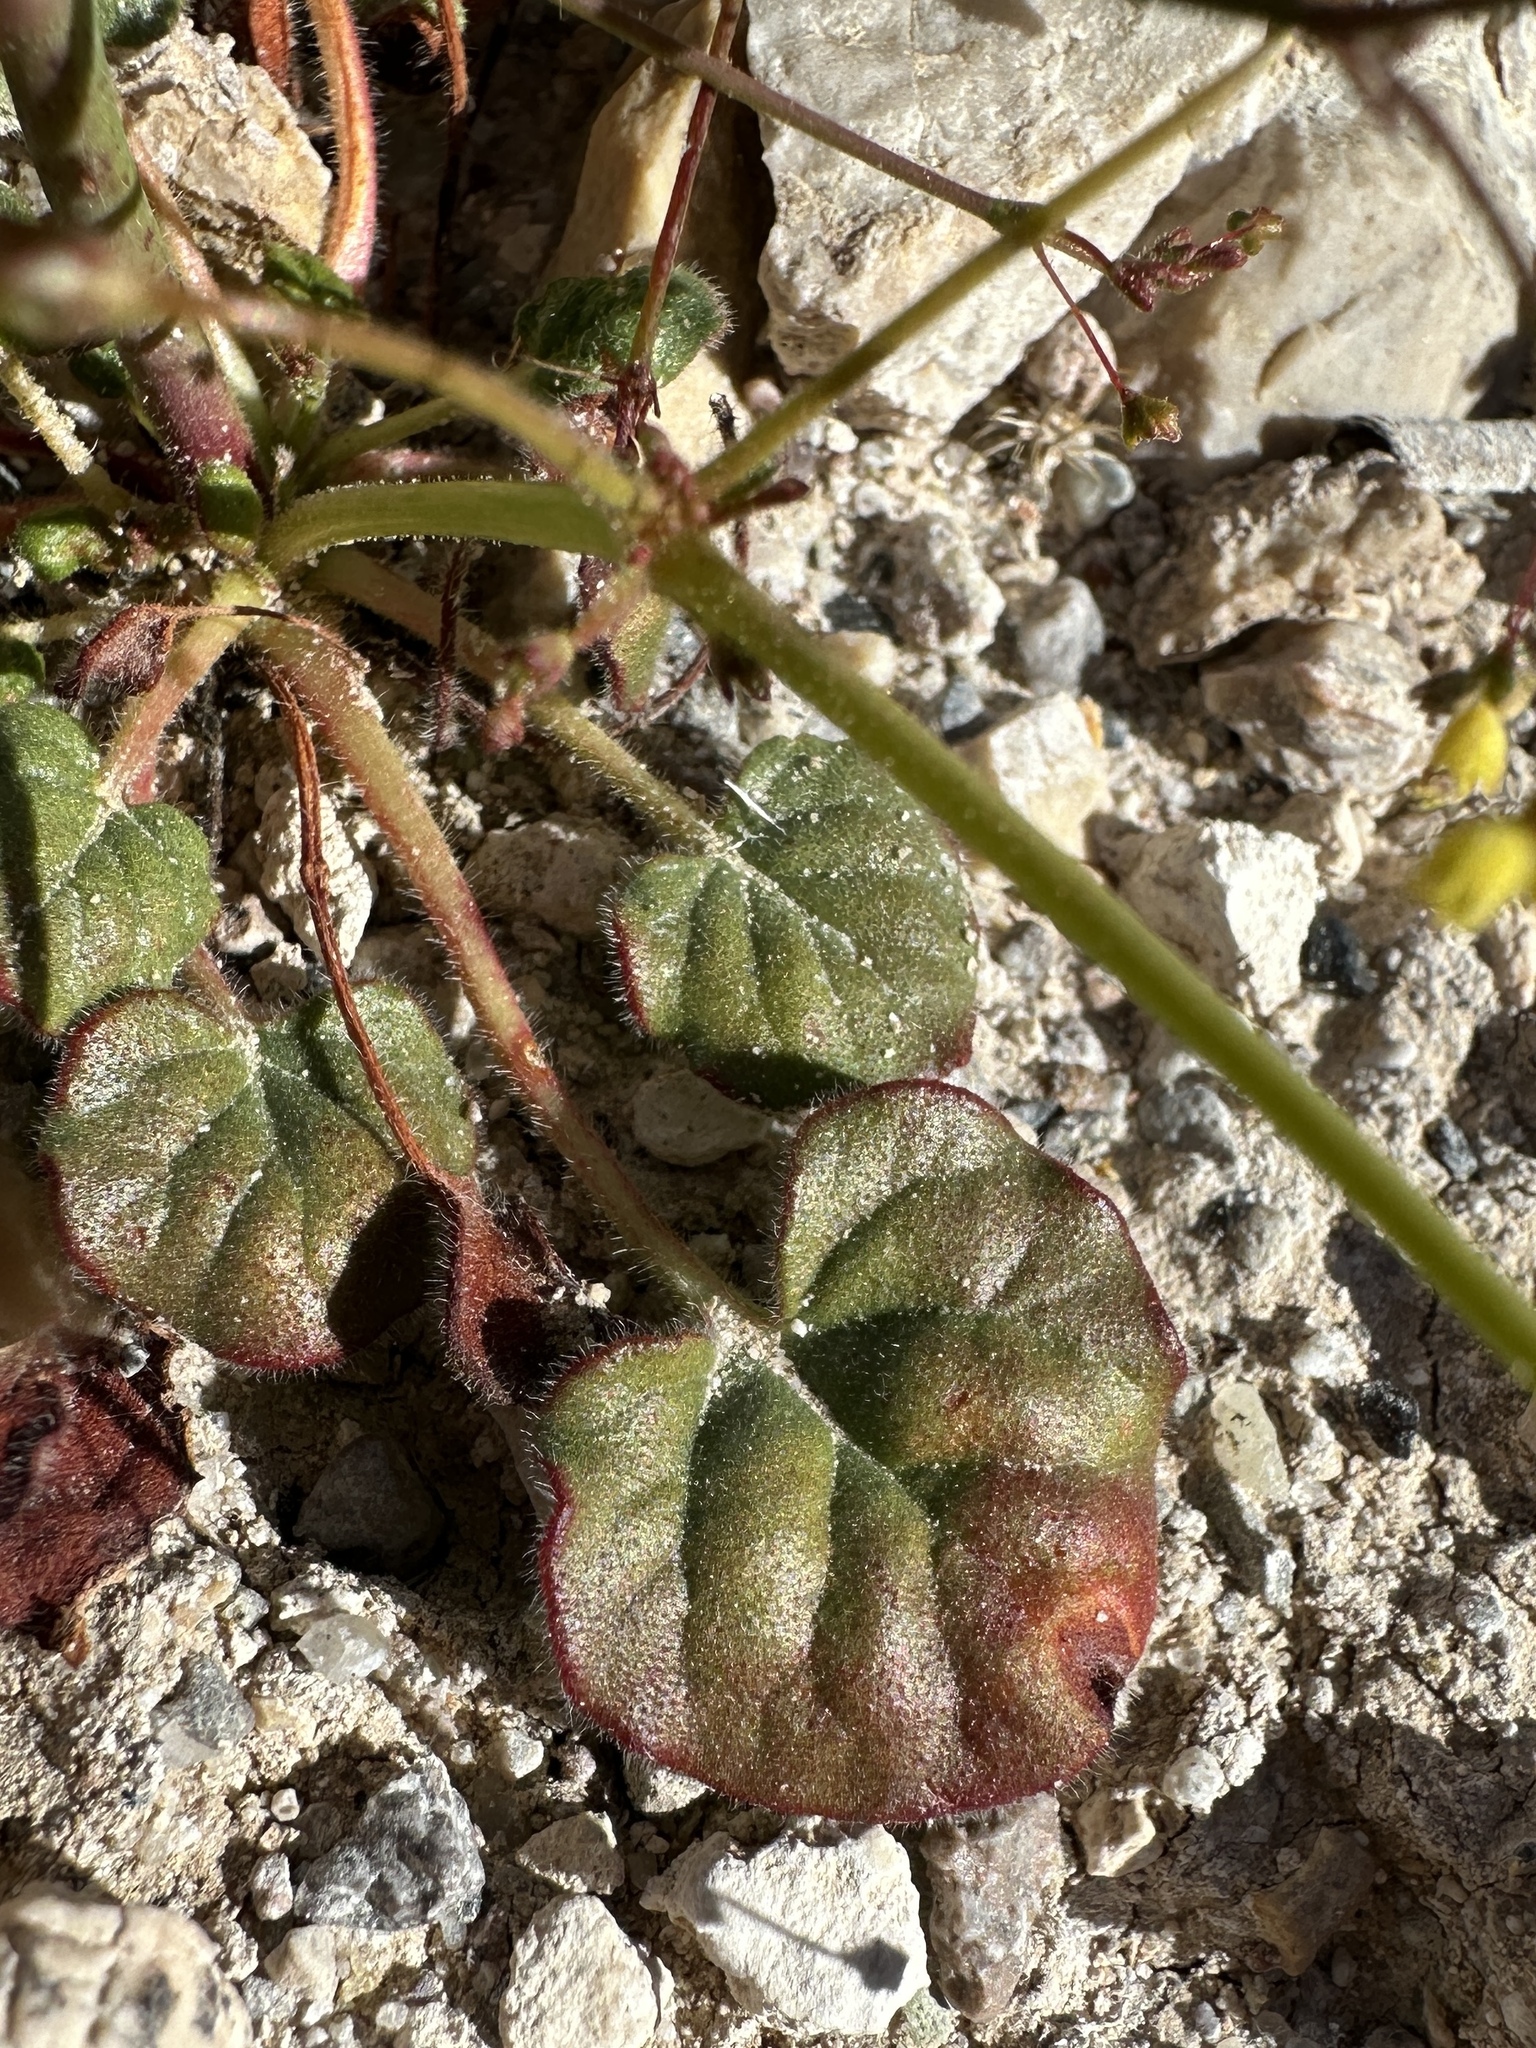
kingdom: Plantae
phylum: Tracheophyta
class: Magnoliopsida
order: Caryophyllales
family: Polygonaceae
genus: Eriogonum
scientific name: Eriogonum trichopes
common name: Little desert trumpet
